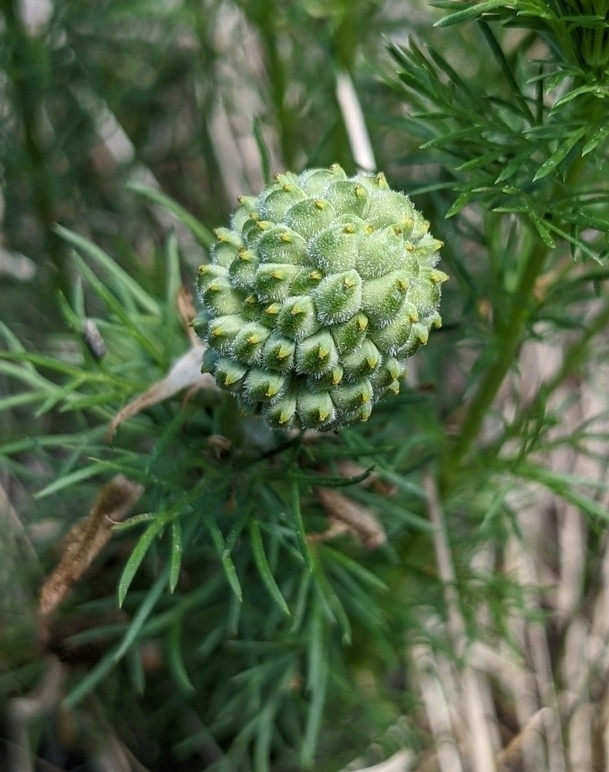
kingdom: Plantae
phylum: Tracheophyta
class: Magnoliopsida
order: Ranunculales
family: Ranunculaceae
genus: Adonis
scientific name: Adonis vernalis
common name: Yellow pheasants-eye
